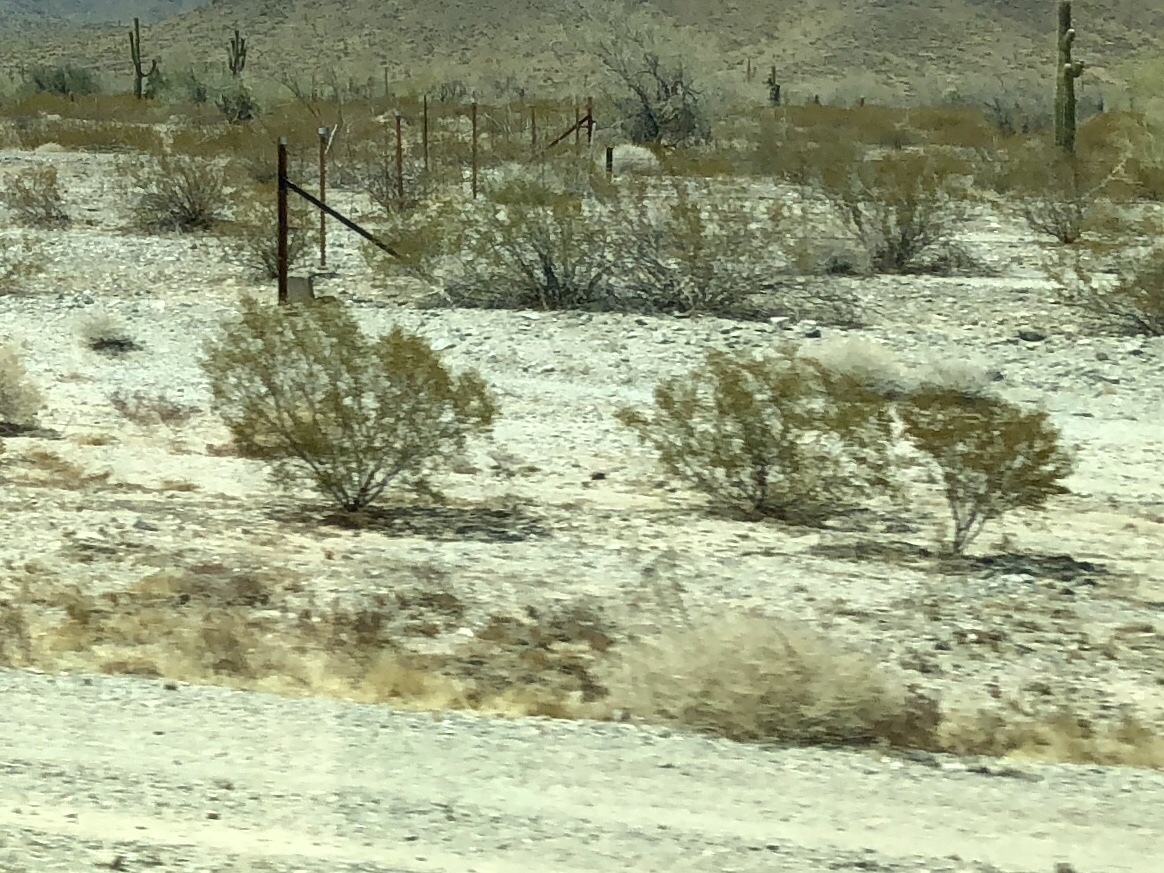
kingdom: Plantae
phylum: Tracheophyta
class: Magnoliopsida
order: Zygophyllales
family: Zygophyllaceae
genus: Larrea
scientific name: Larrea tridentata
